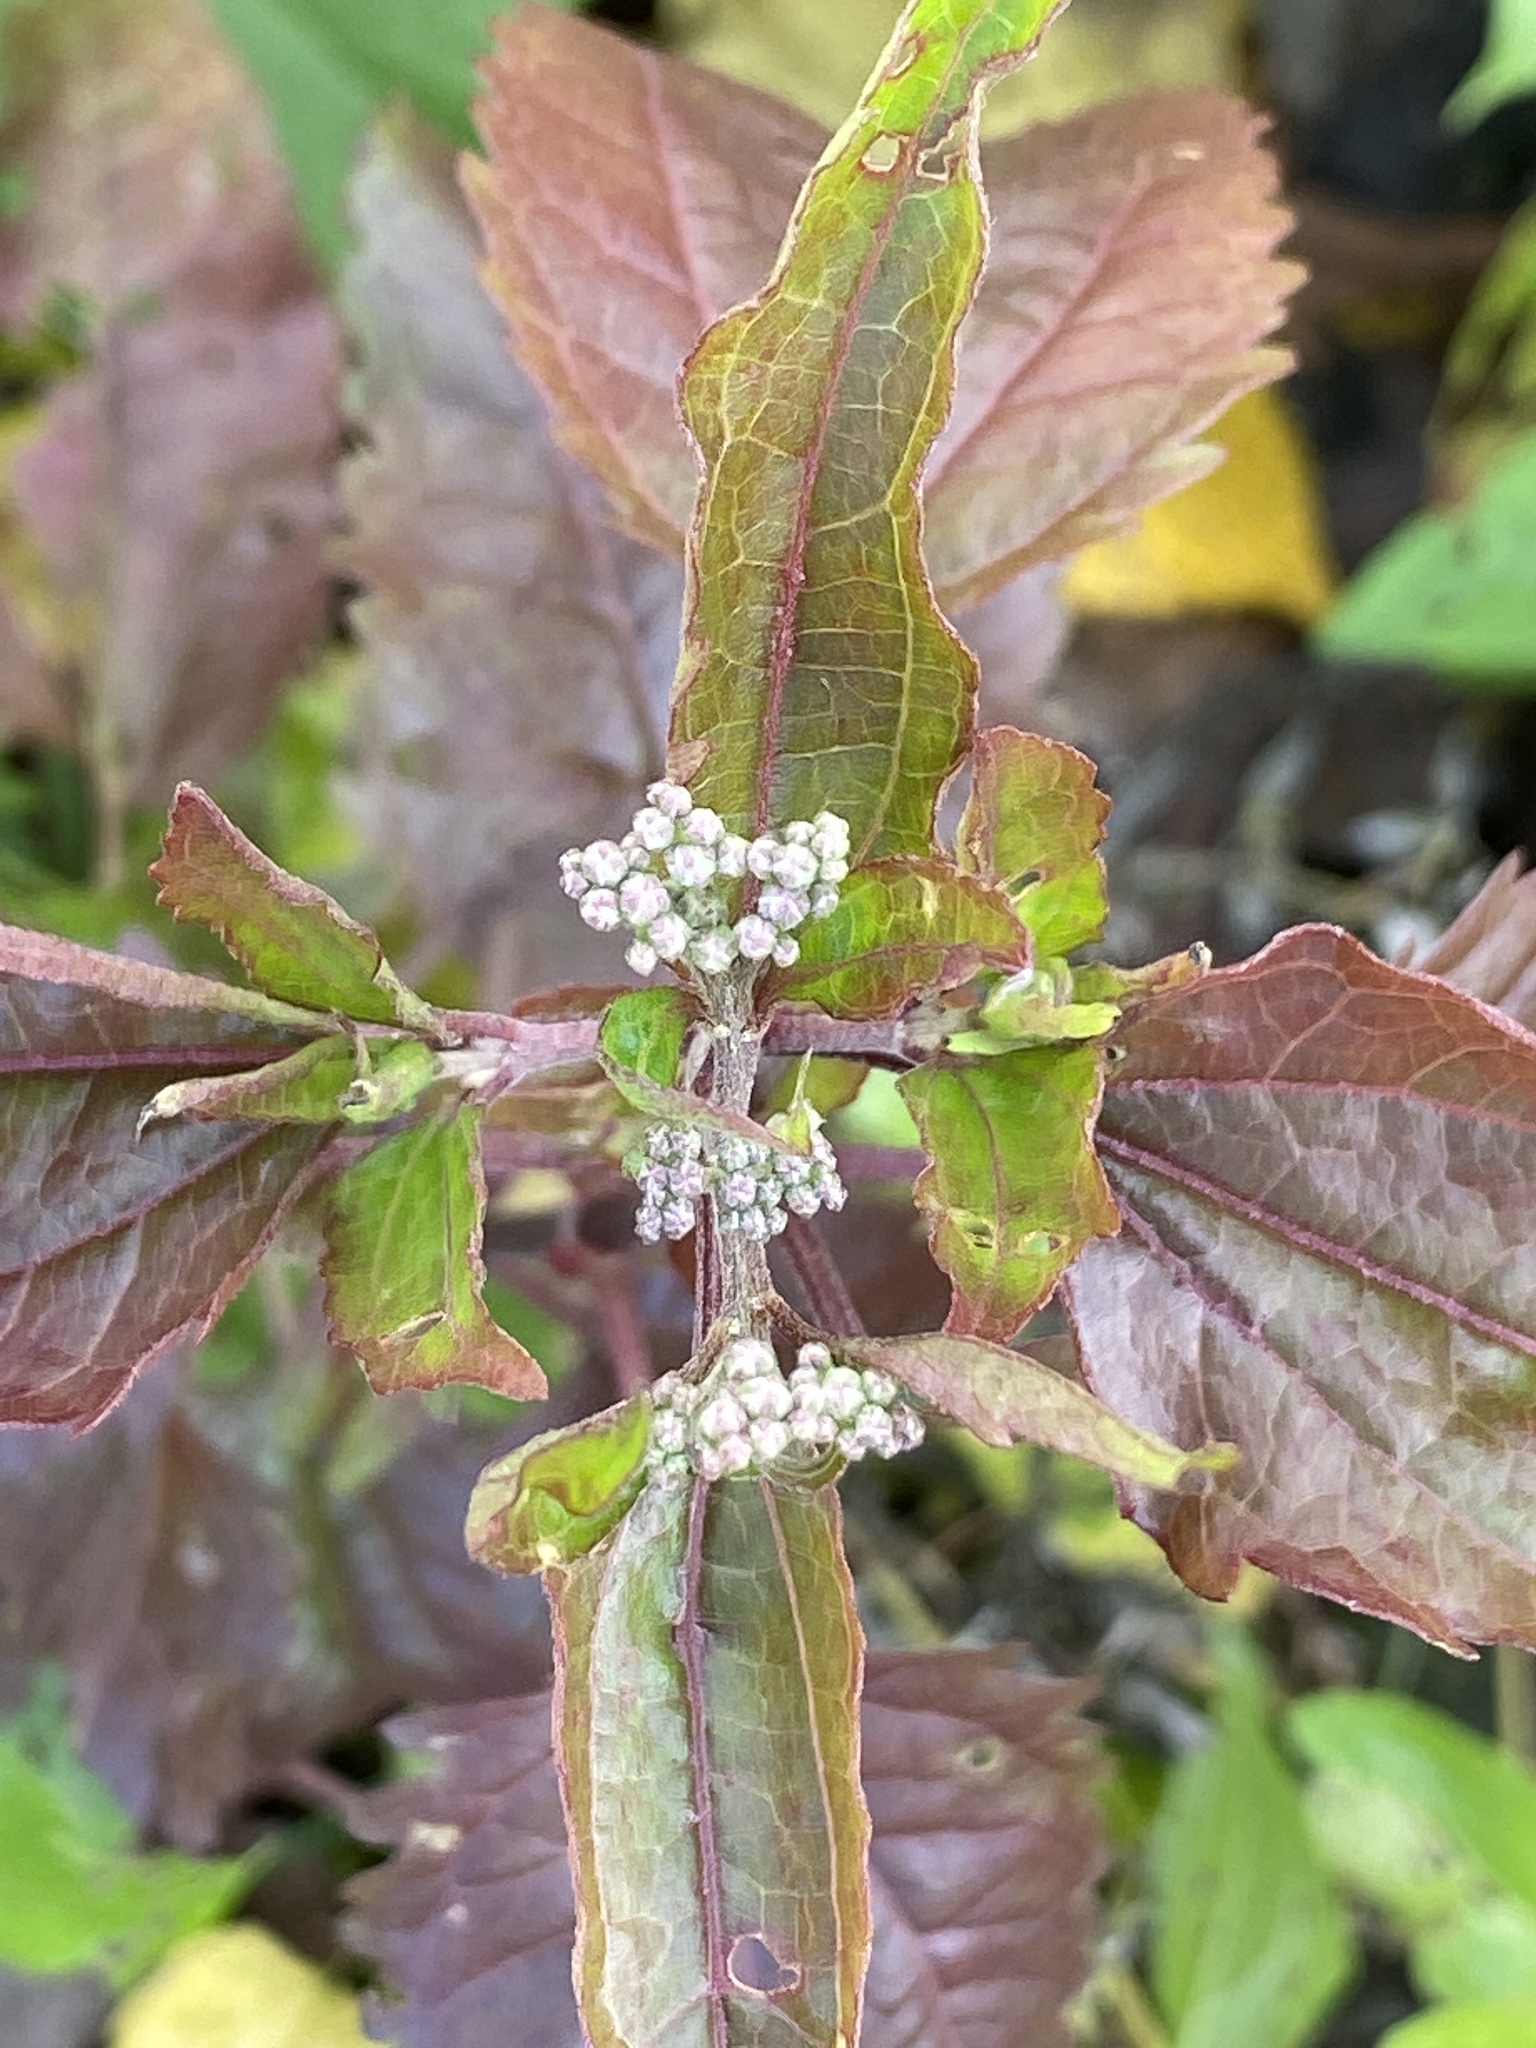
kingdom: Plantae
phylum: Tracheophyta
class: Magnoliopsida
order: Asterales
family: Asteraceae
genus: Eupatorium
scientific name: Eupatorium serotinum
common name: Late boneset
